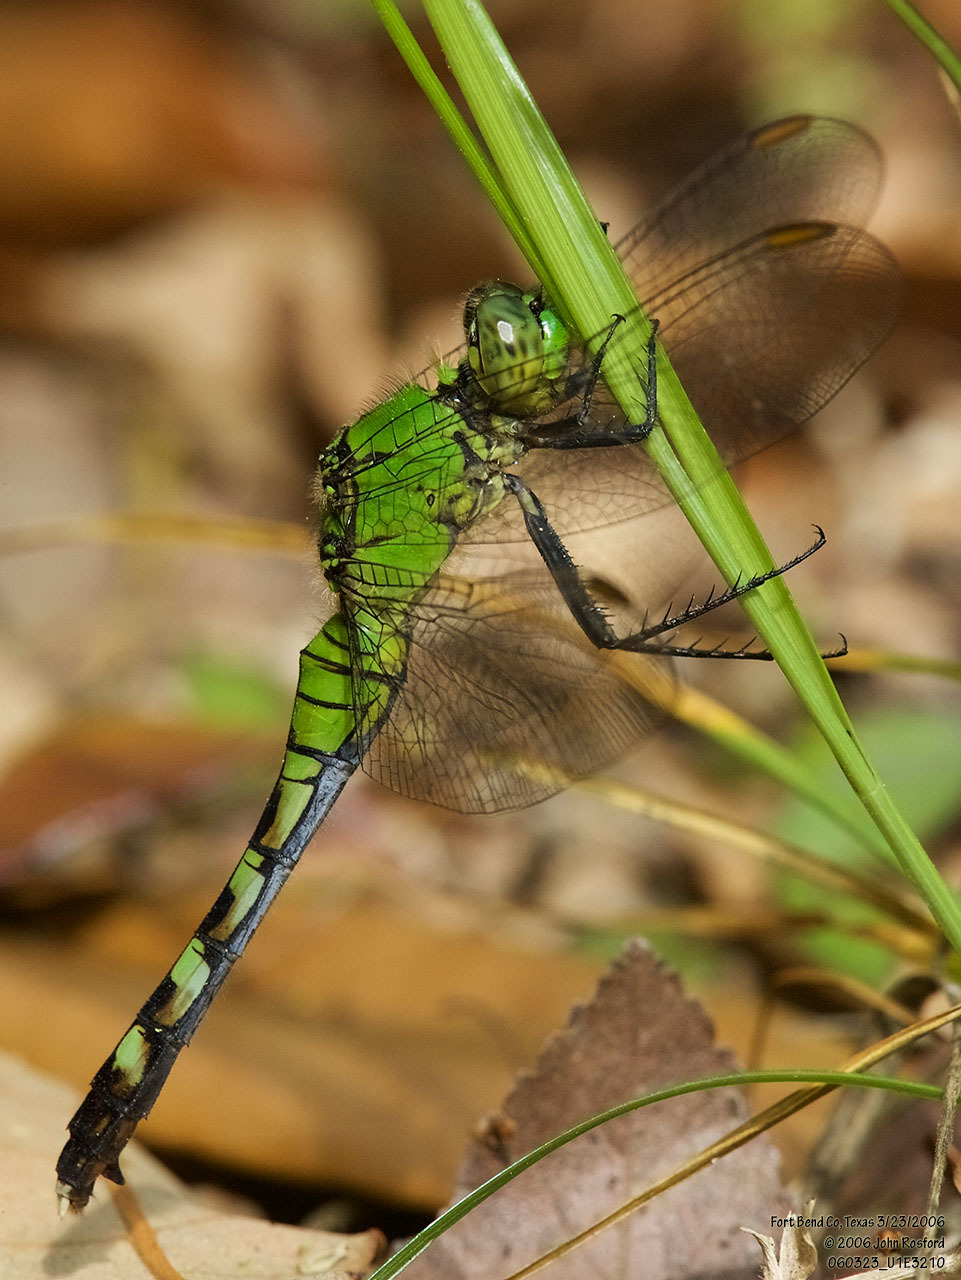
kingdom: Animalia
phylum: Arthropoda
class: Insecta
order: Odonata
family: Libellulidae
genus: Erythemis
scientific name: Erythemis simplicicollis
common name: Eastern pondhawk
